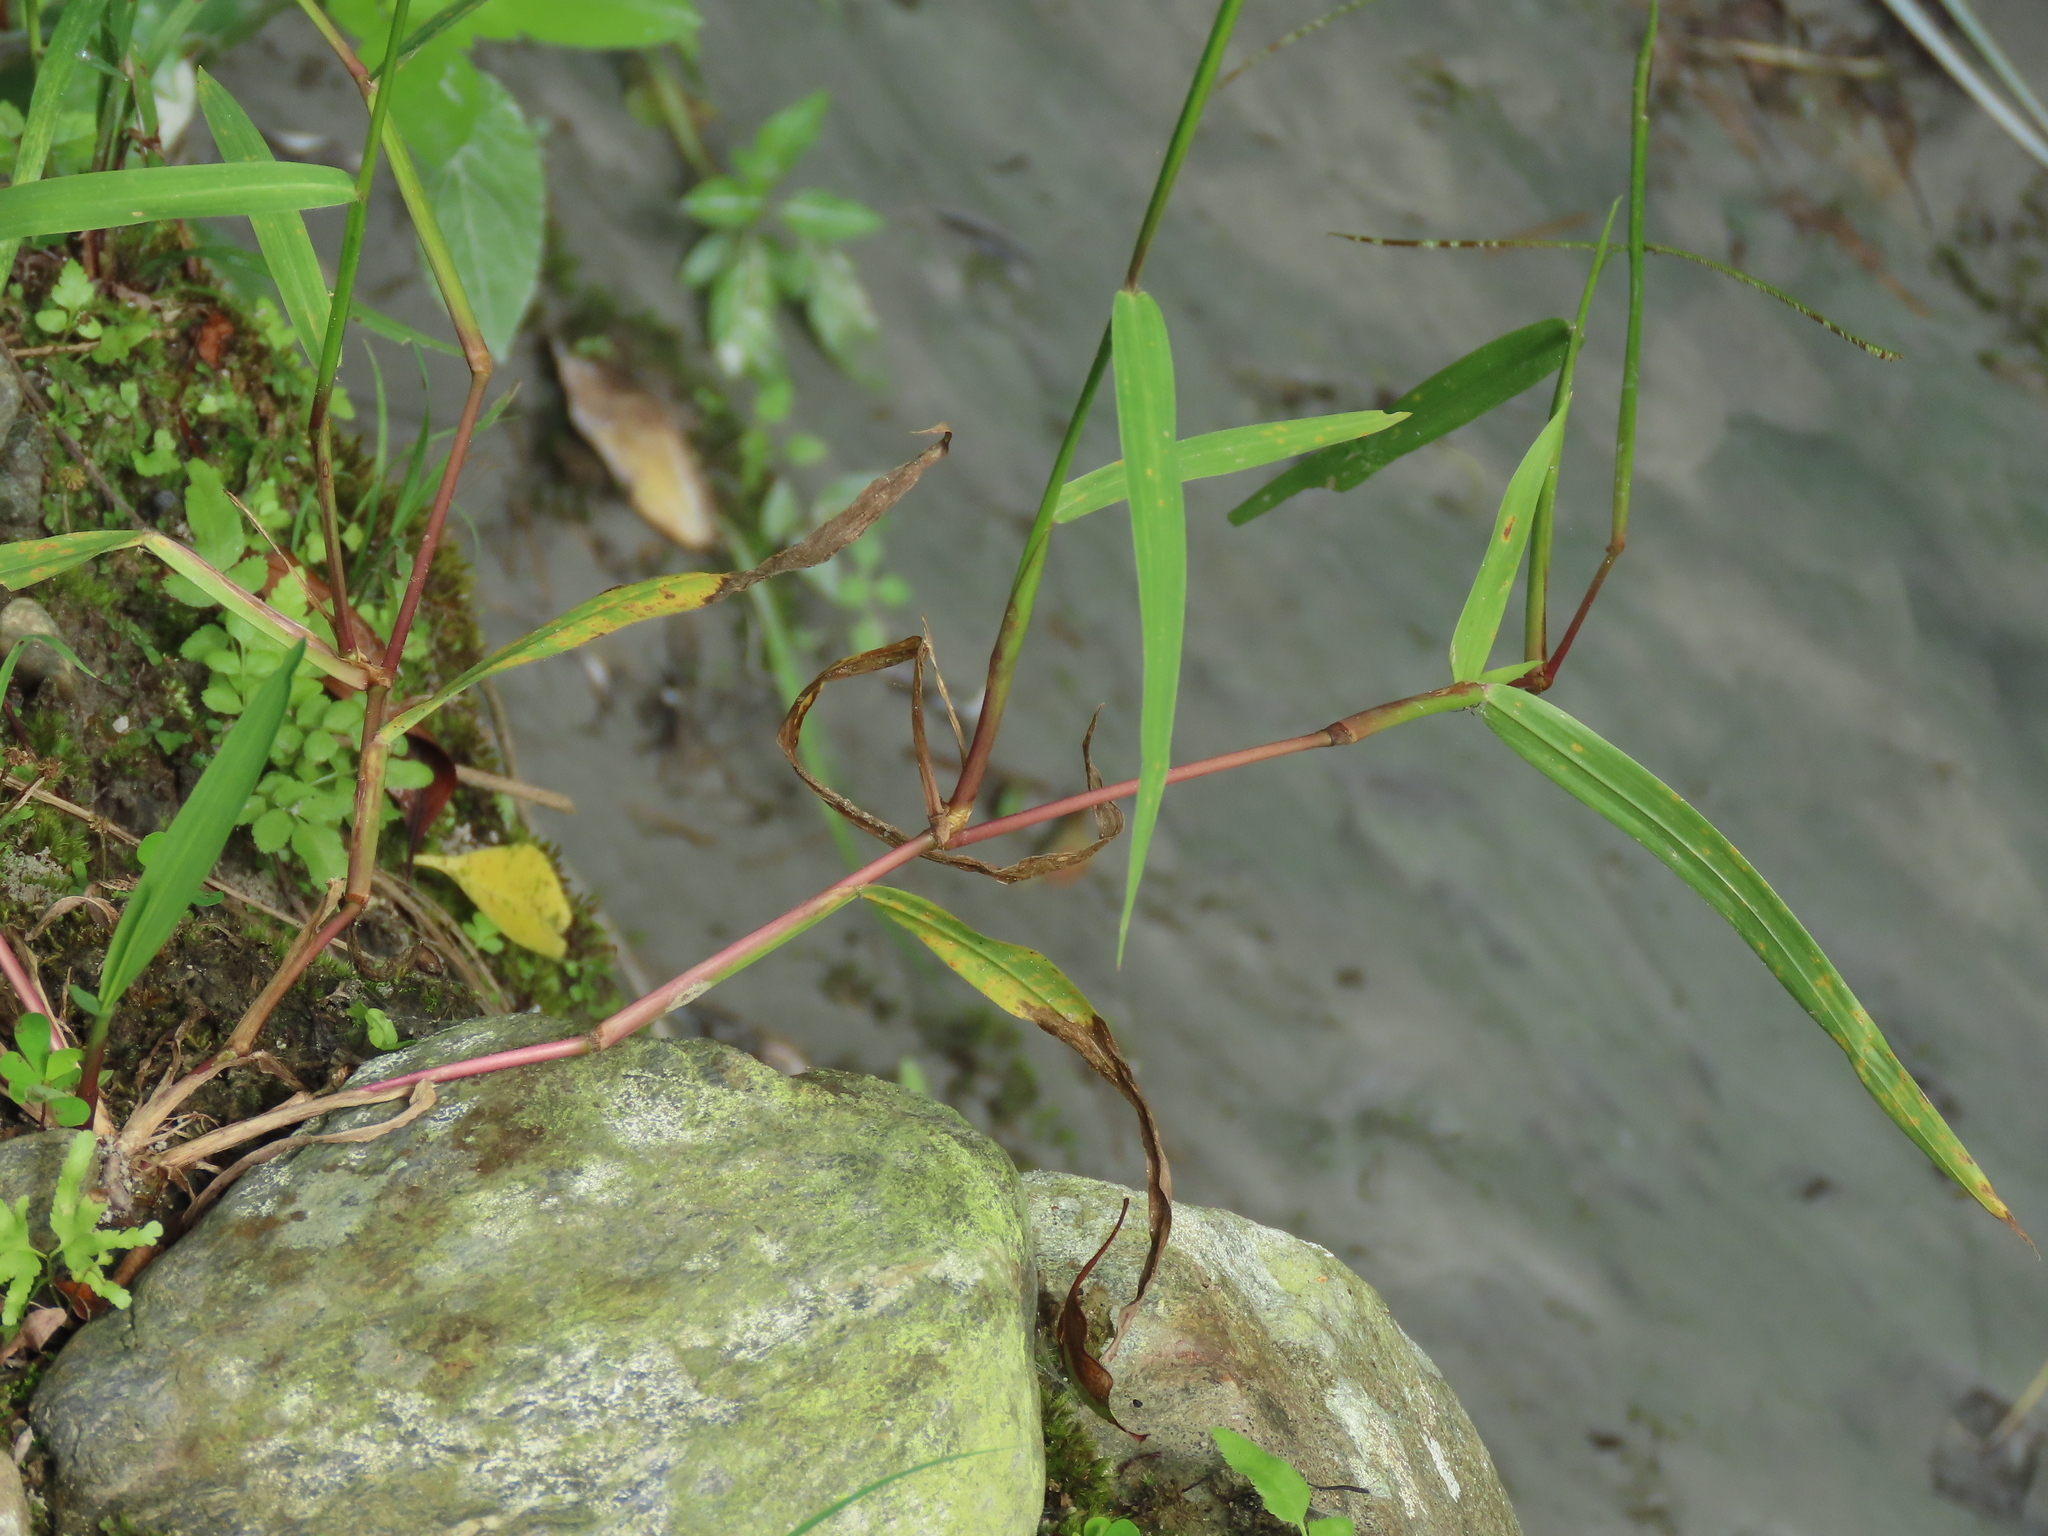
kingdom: Plantae
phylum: Tracheophyta
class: Liliopsida
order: Poales
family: Poaceae
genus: Paspalum
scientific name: Paspalum conjugatum
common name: Hilograss
